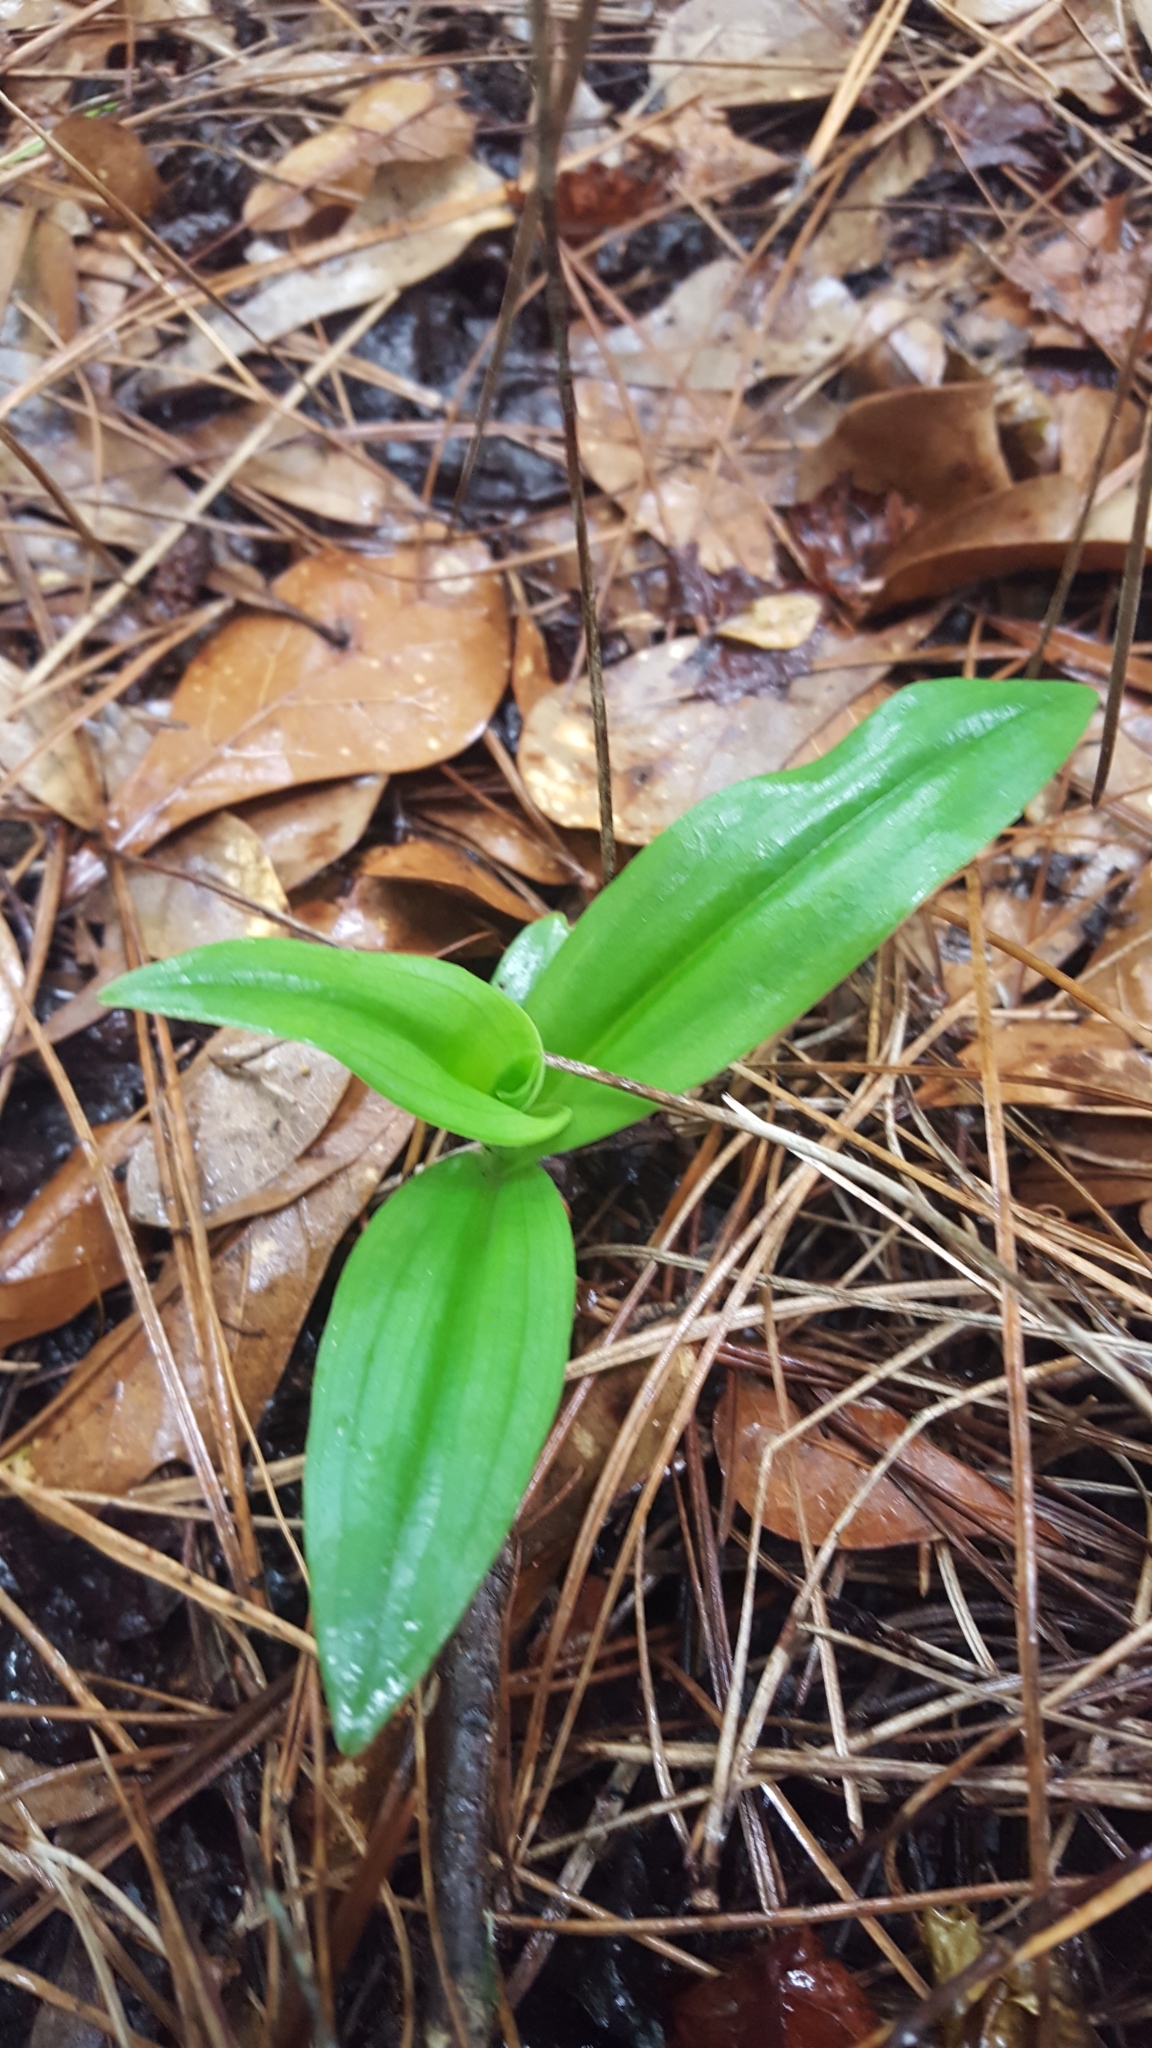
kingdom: Plantae
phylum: Tracheophyta
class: Liliopsida
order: Asparagales
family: Orchidaceae
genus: Habenaria
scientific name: Habenaria floribunda
